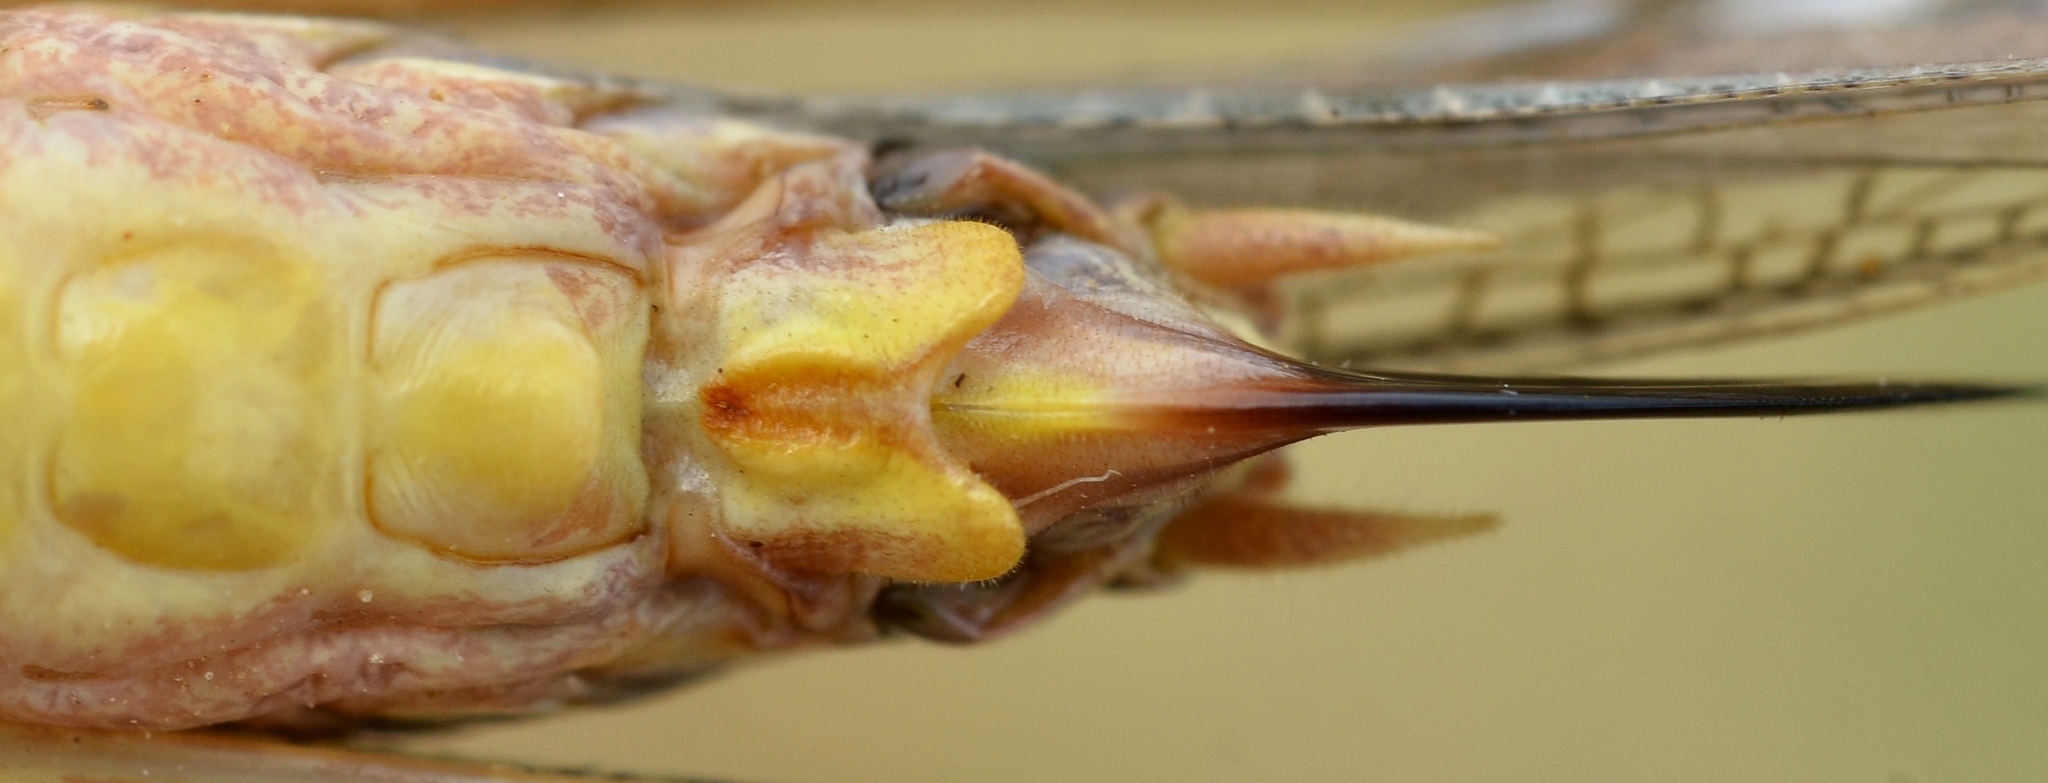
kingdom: Animalia
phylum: Arthropoda
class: Insecta
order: Orthoptera
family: Tettigoniidae
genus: Platycleis
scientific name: Platycleis falx
